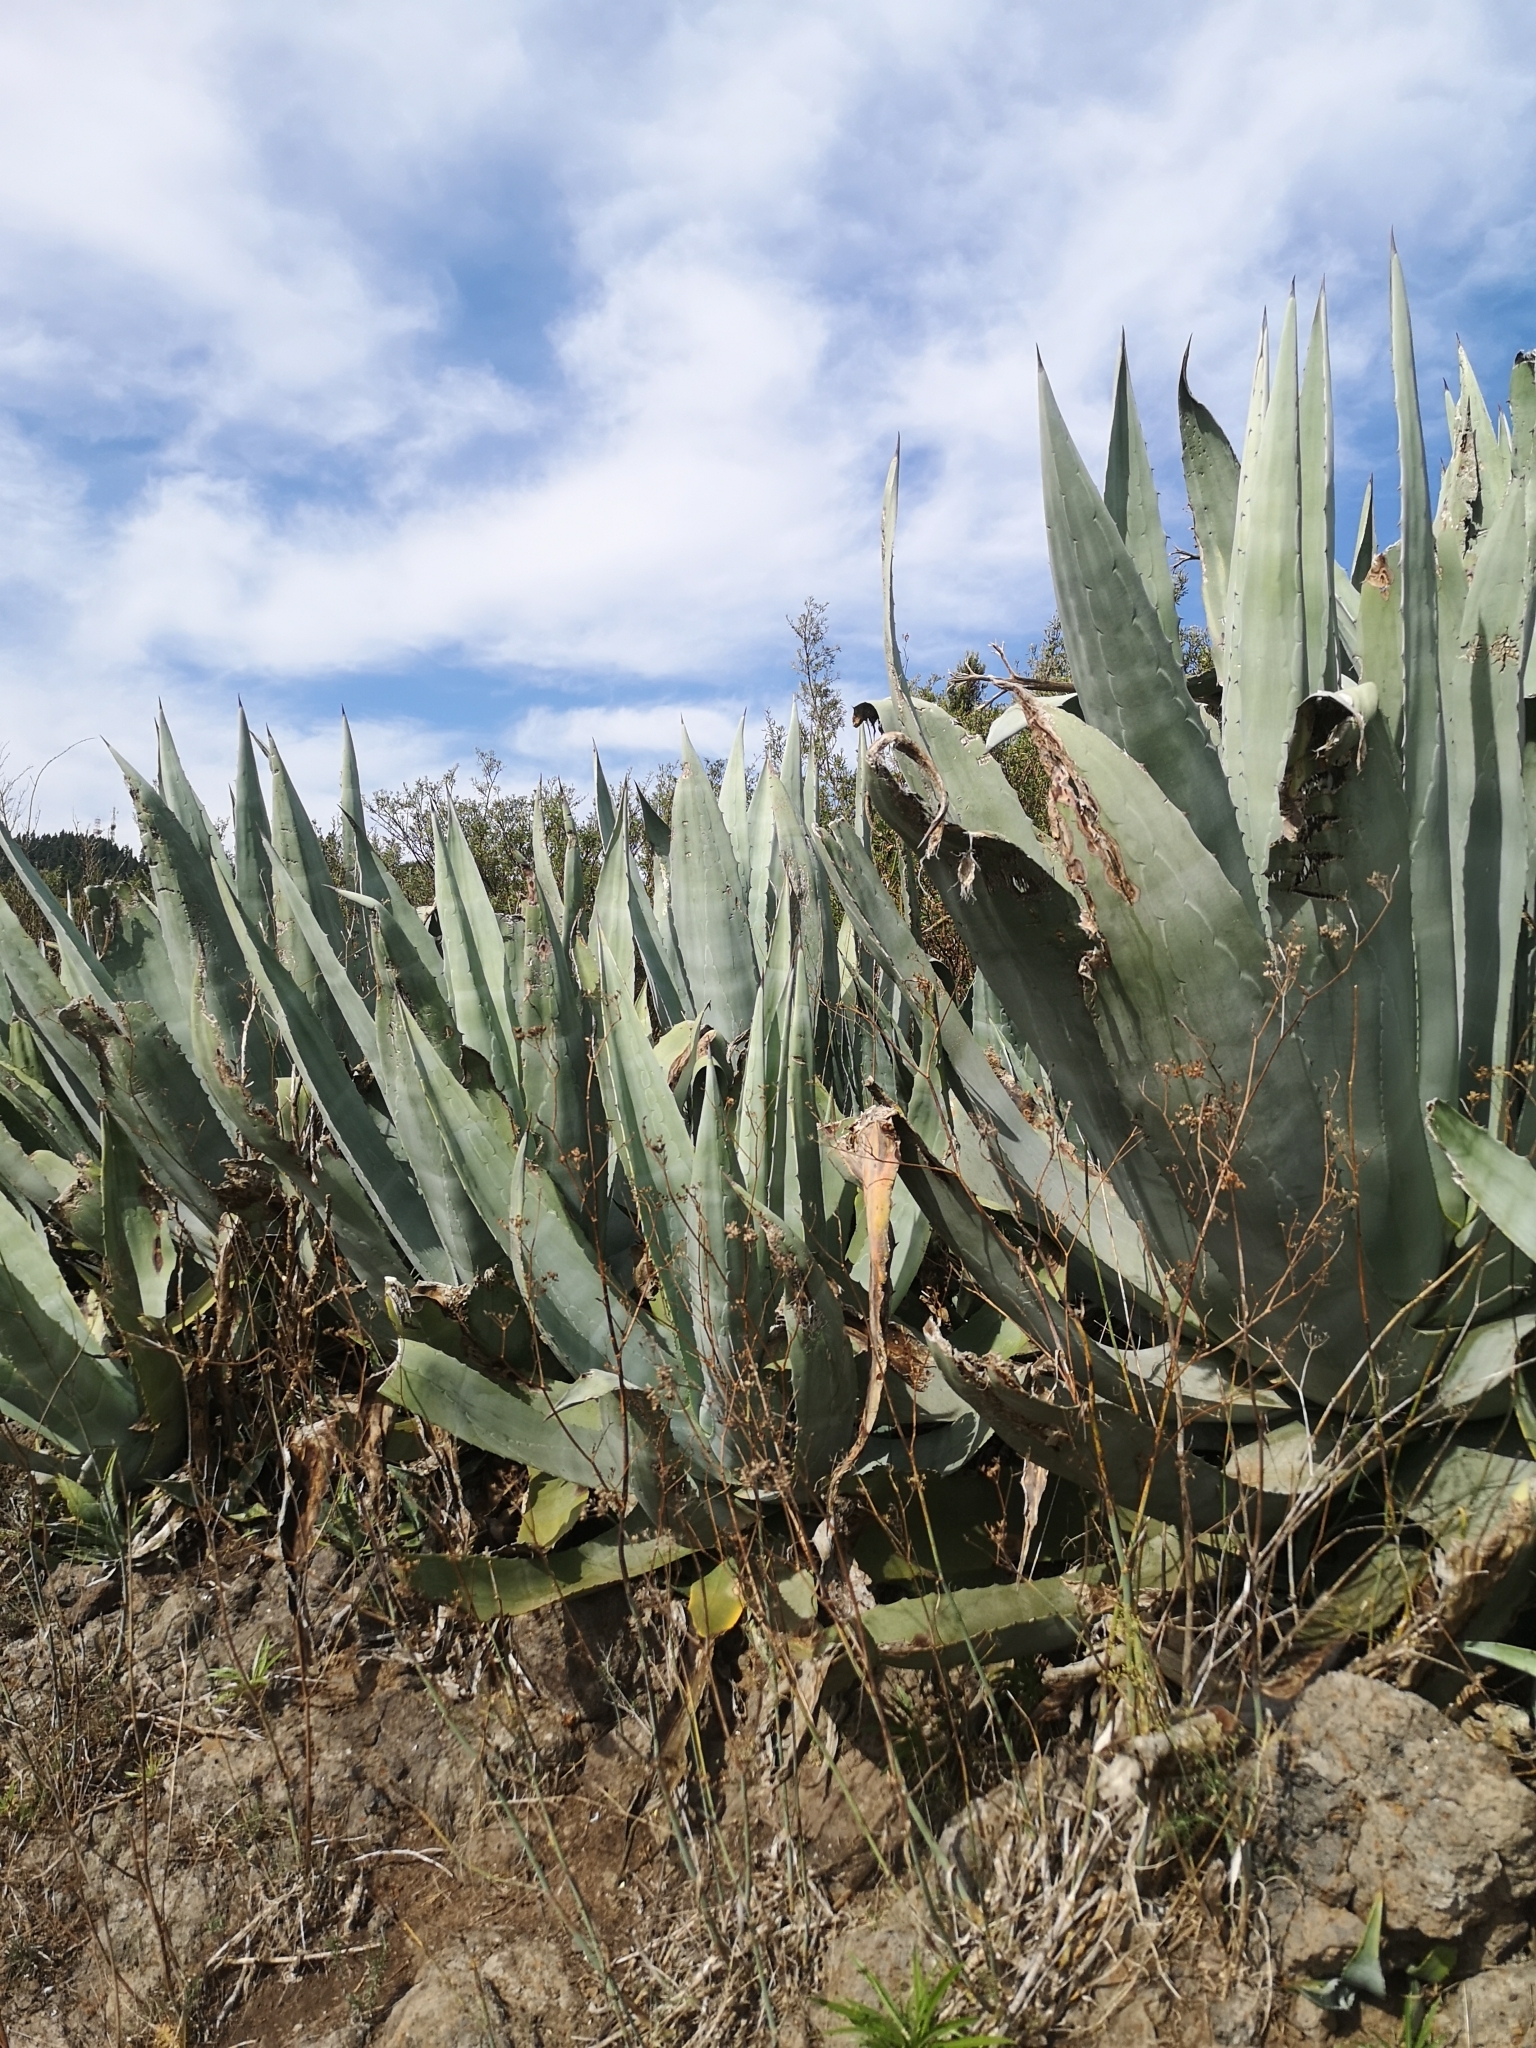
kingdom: Plantae
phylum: Tracheophyta
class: Liliopsida
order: Asparagales
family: Asparagaceae
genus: Agave
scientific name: Agave americana
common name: Centuryplant
